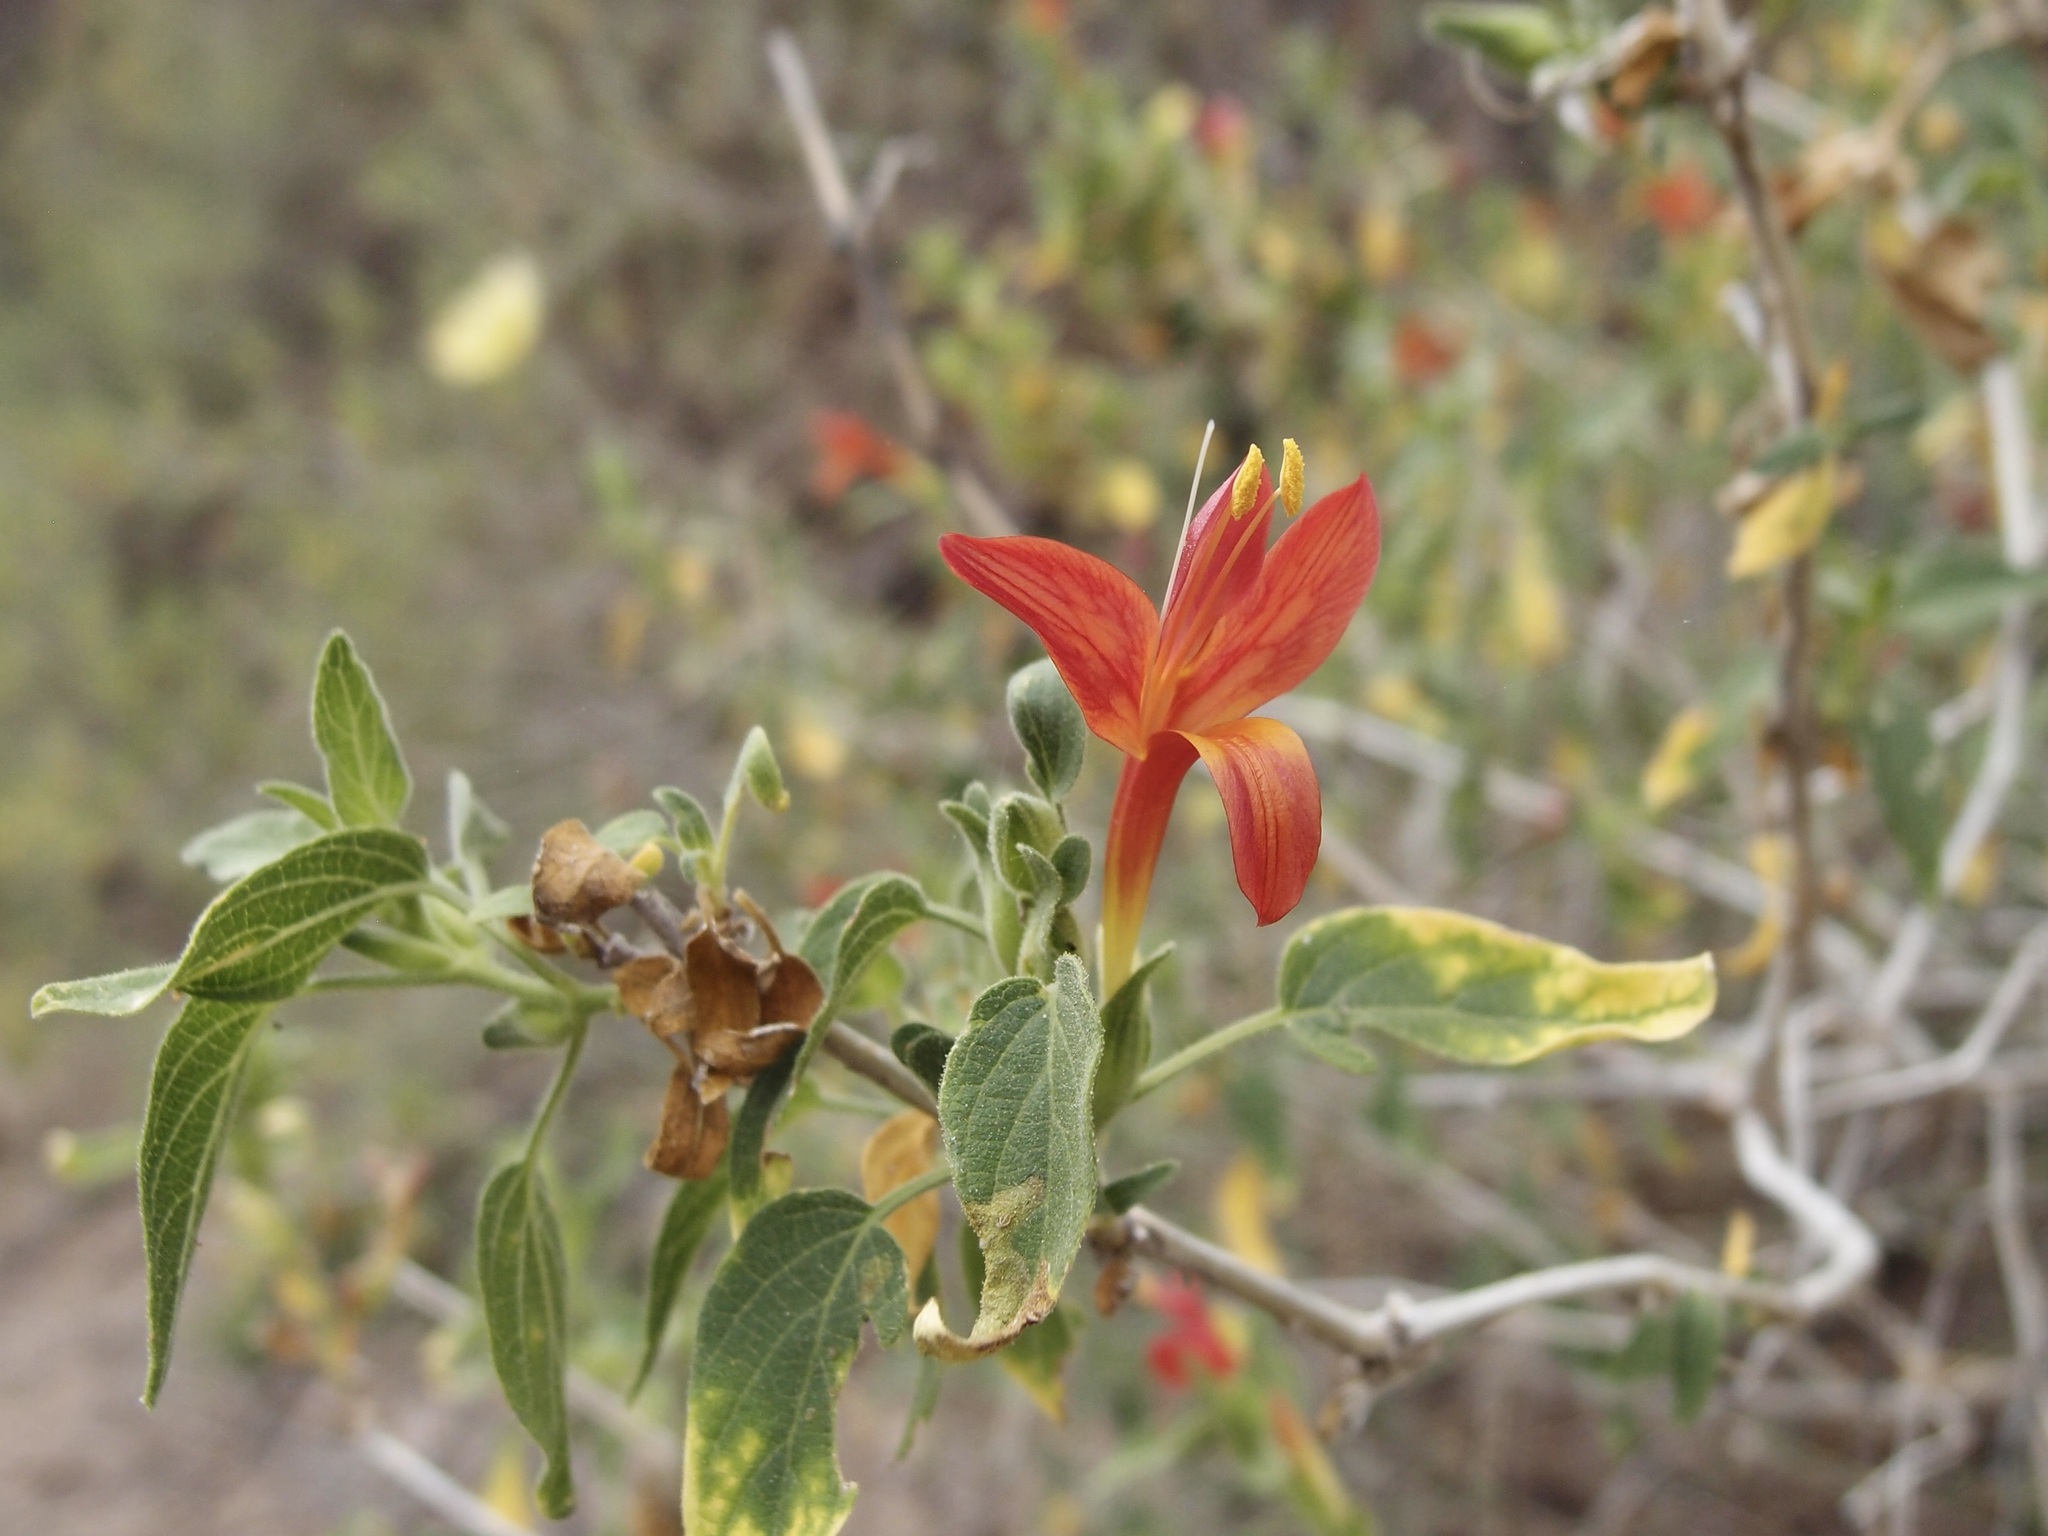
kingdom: Plantae
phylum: Tracheophyta
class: Magnoliopsida
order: Lamiales
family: Acanthaceae
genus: Tetramerium
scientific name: Tetramerium abditum
